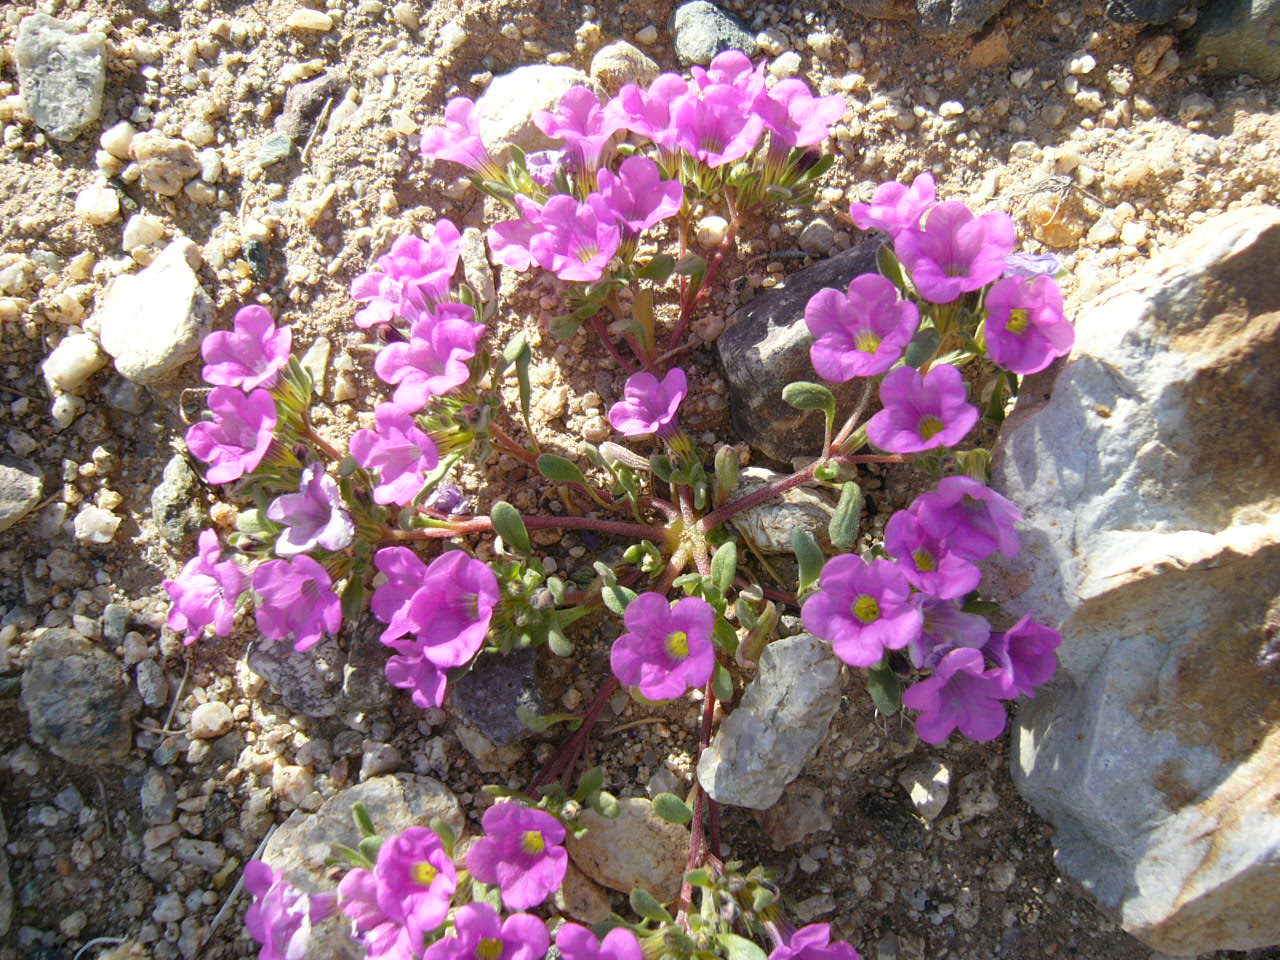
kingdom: Plantae
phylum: Tracheophyta
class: Magnoliopsida
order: Boraginales
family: Namaceae
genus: Nama
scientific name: Nama demissa
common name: Leafy nama
